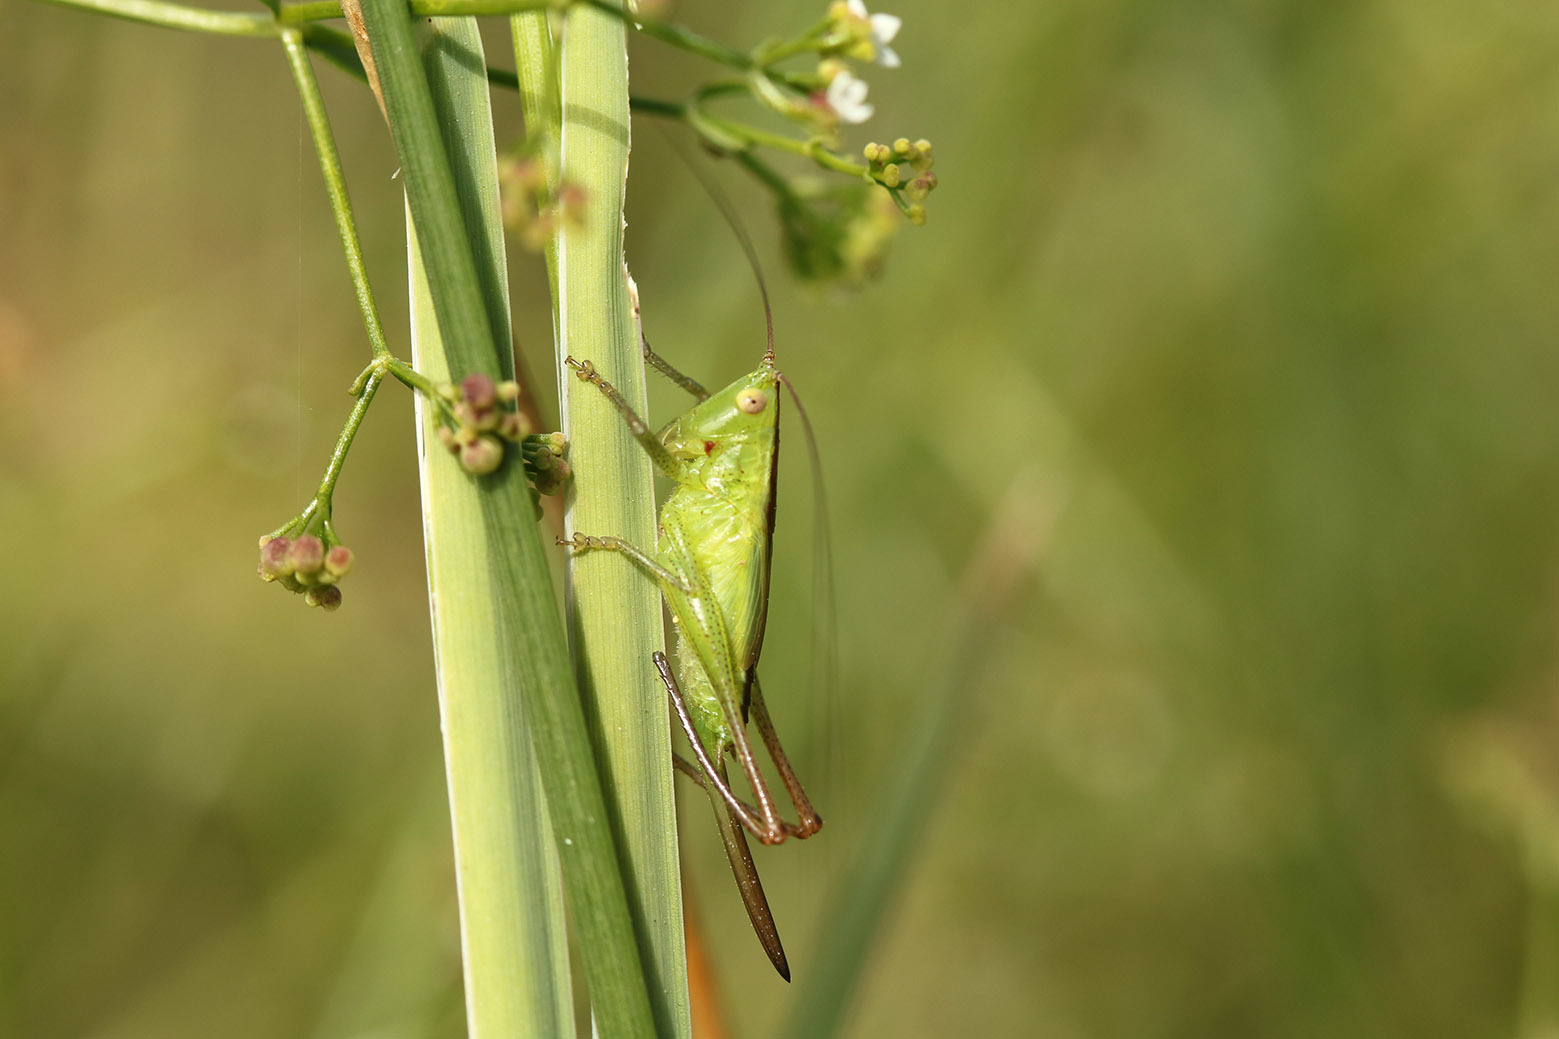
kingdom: Animalia
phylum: Arthropoda
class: Insecta
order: Orthoptera
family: Tettigoniidae
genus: Conocephalus
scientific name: Conocephalus longipes
